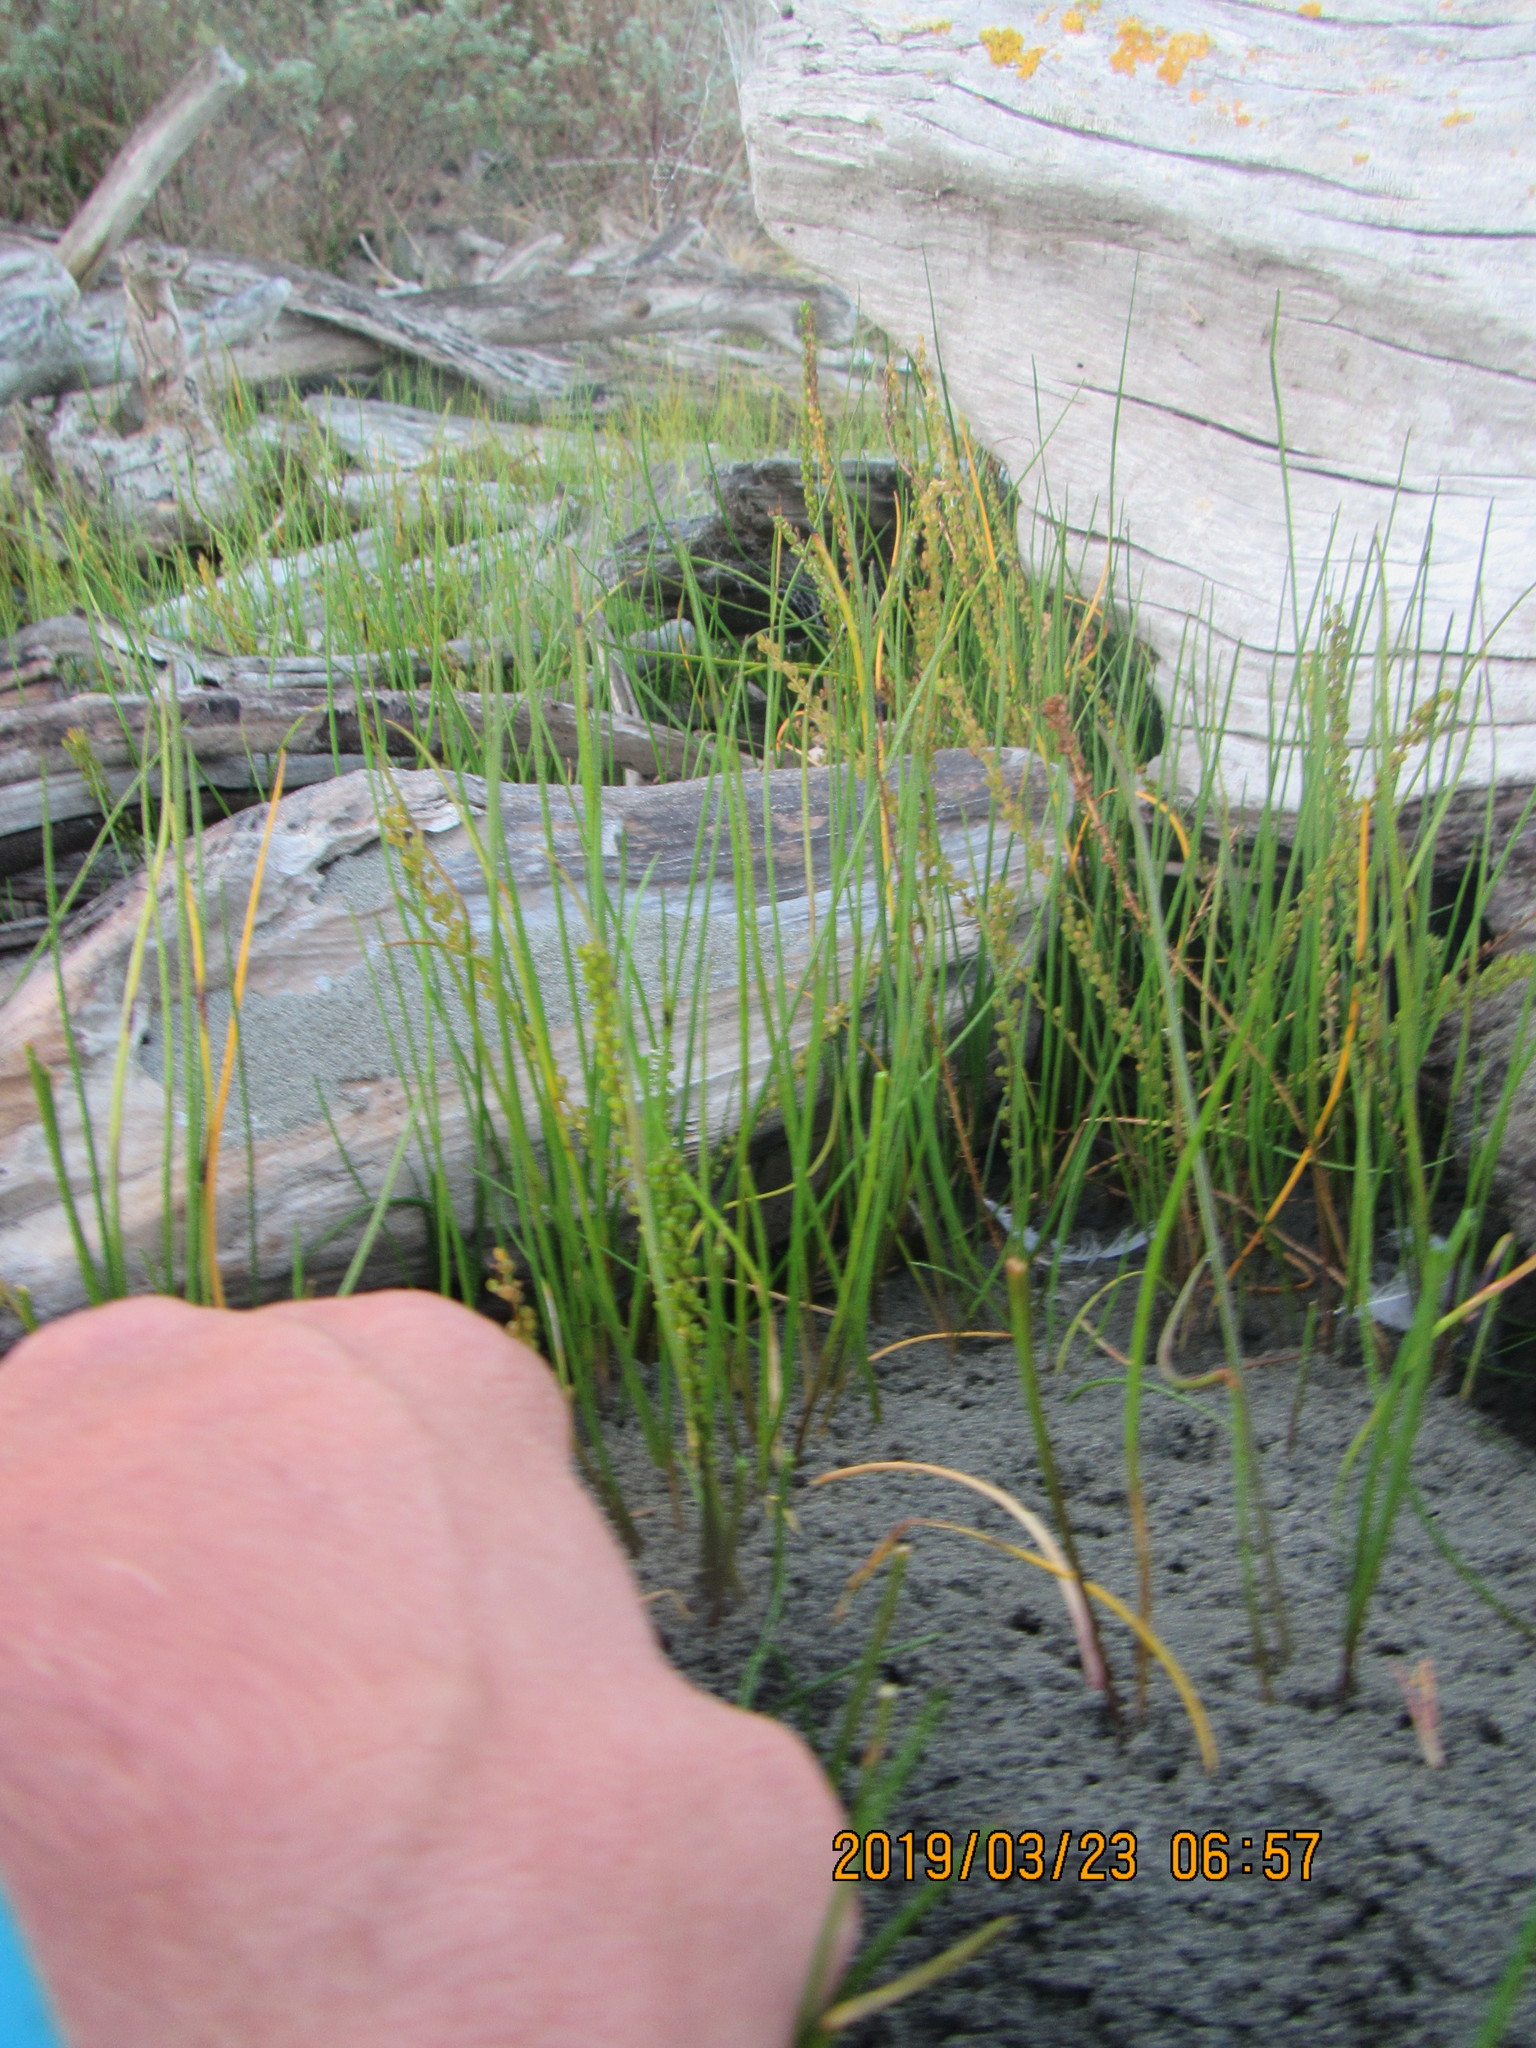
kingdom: Plantae
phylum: Tracheophyta
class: Liliopsida
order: Alismatales
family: Juncaginaceae
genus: Triglochin
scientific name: Triglochin striata
